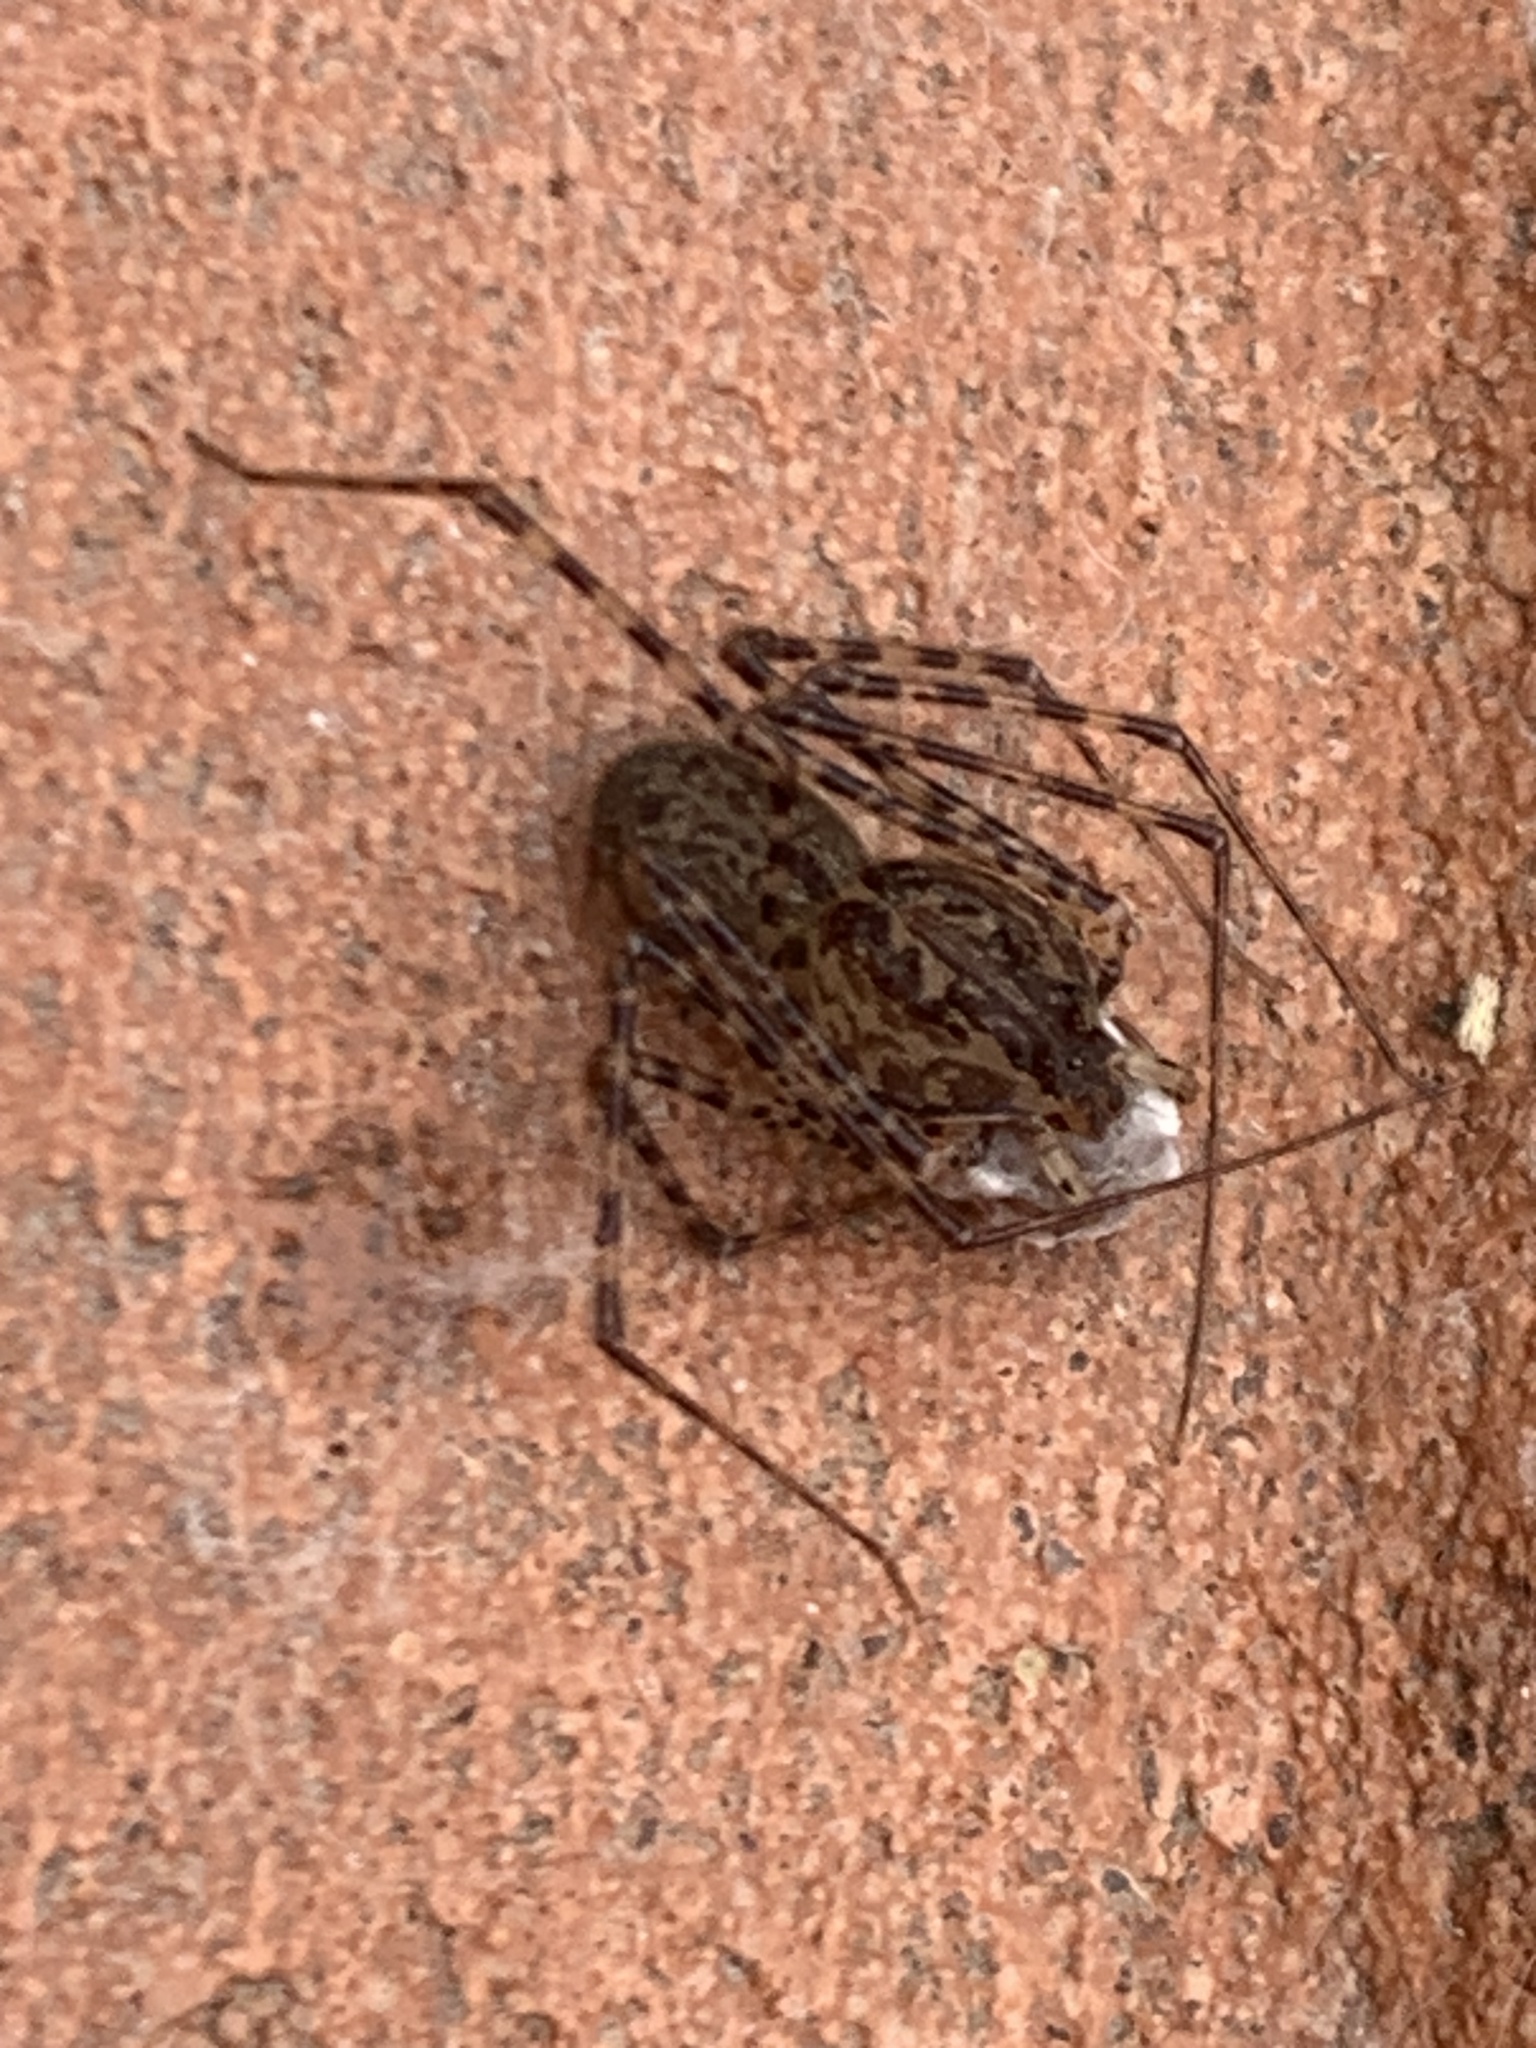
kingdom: Animalia
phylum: Arthropoda
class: Arachnida
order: Araneae
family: Scytodidae
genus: Scytodes
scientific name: Scytodes globula
